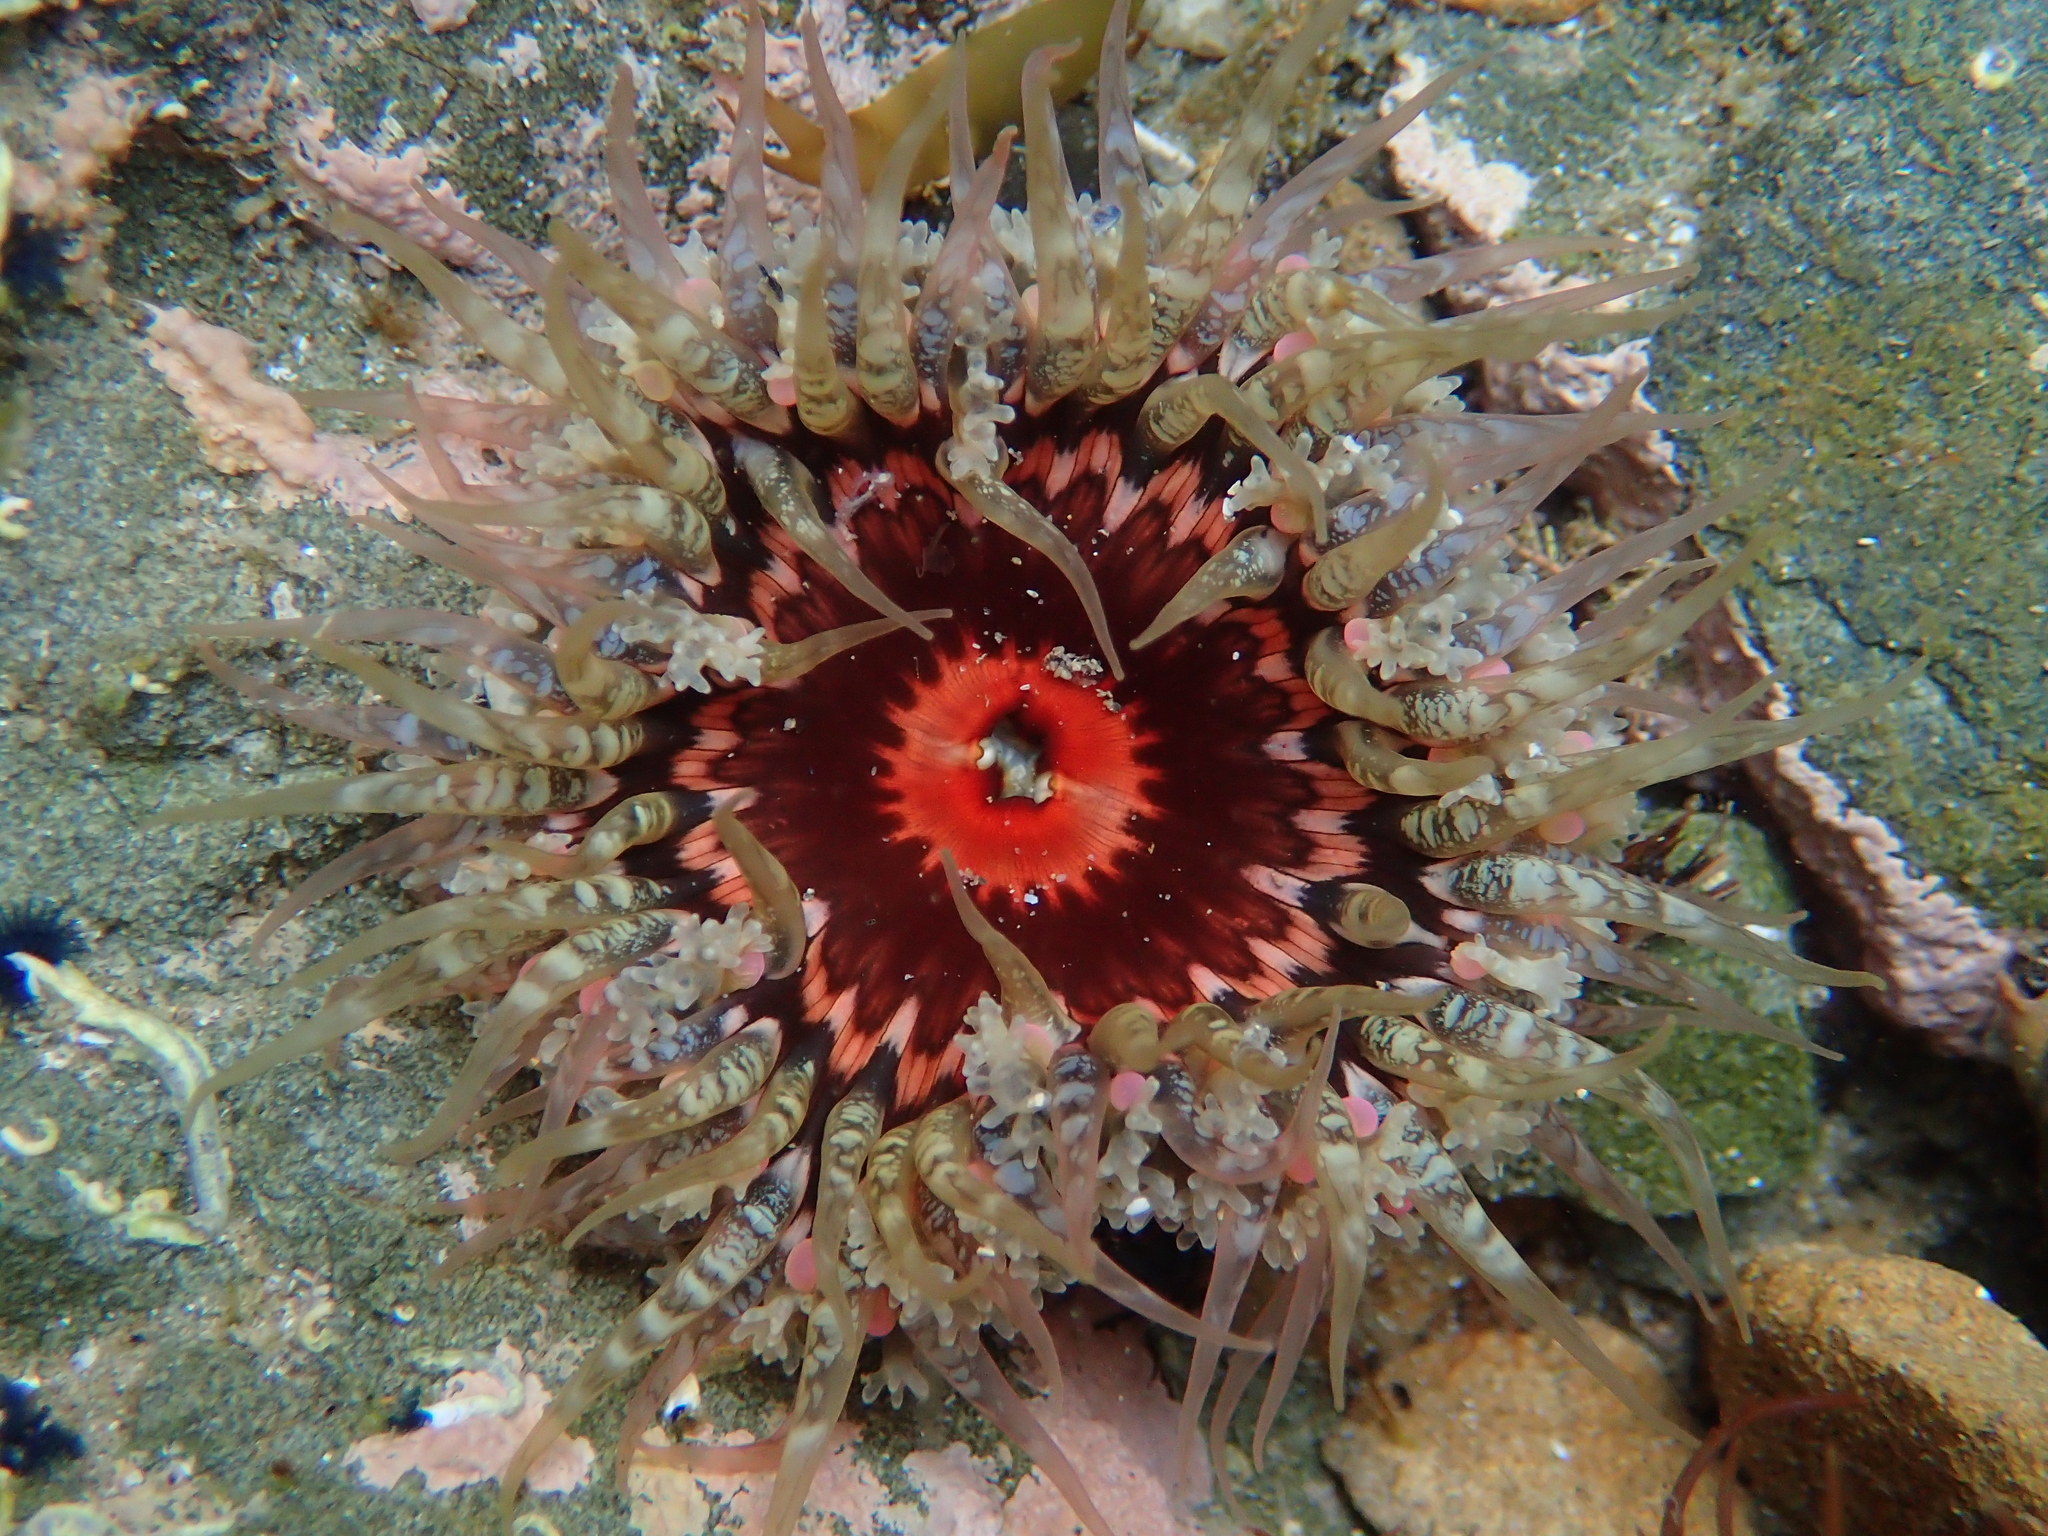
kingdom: Animalia
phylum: Cnidaria
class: Anthozoa
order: Actiniaria
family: Actiniidae
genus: Oulactis
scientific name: Oulactis muscosa
